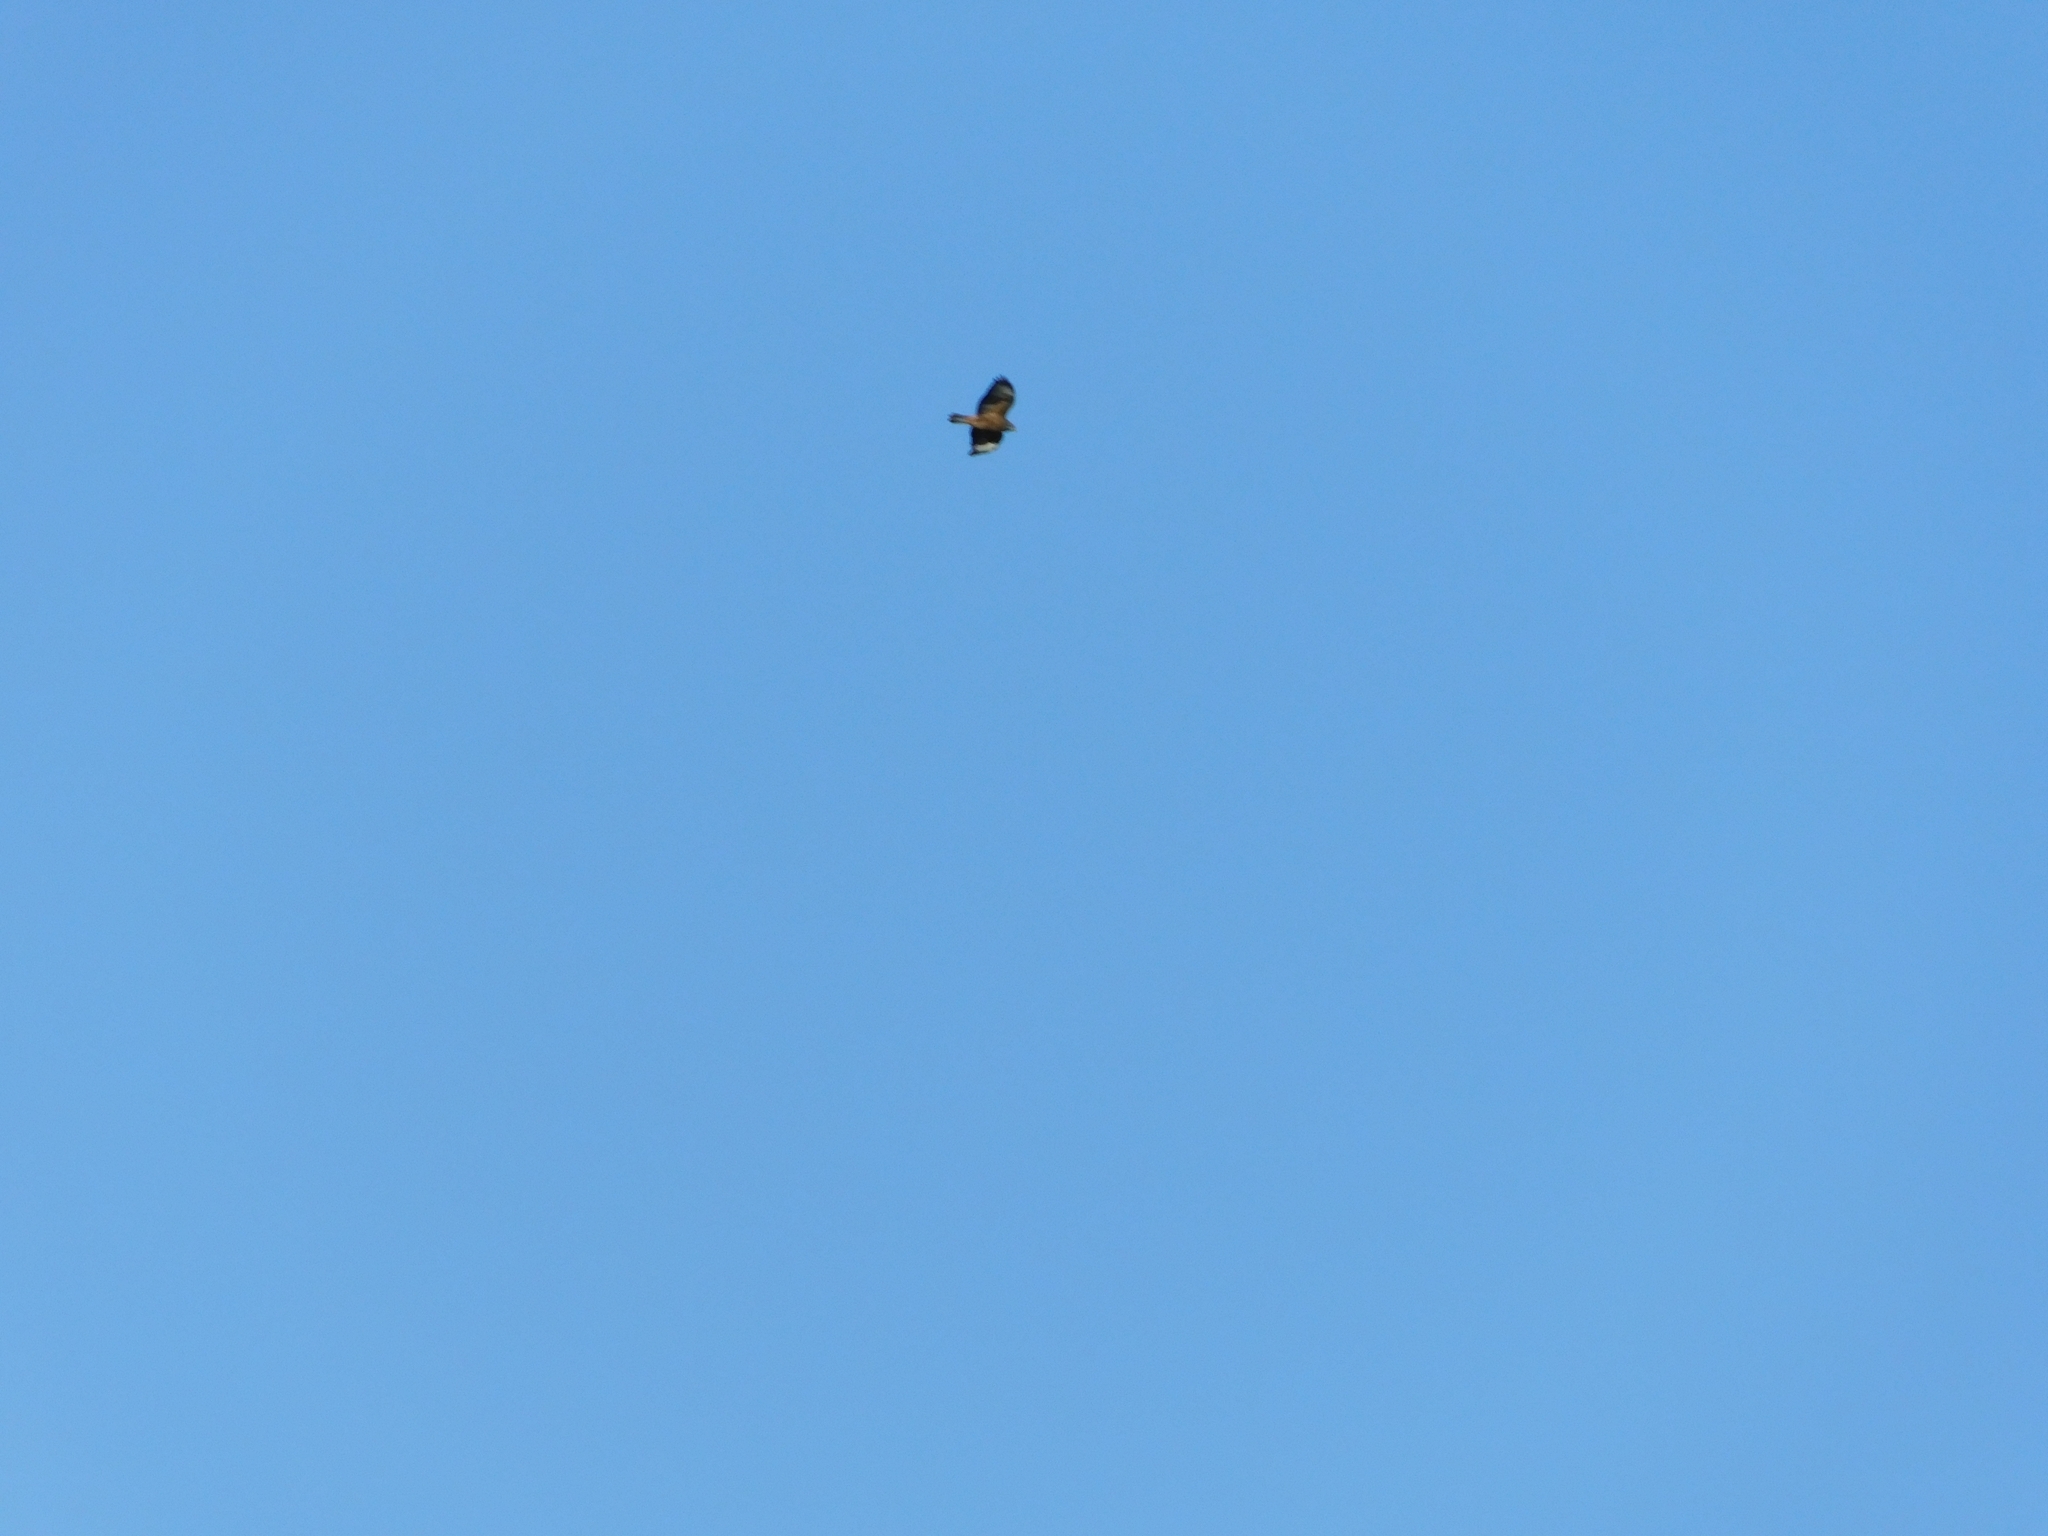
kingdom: Animalia
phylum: Chordata
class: Aves
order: Accipitriformes
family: Accipitridae
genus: Buteo
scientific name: Buteo buteo
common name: Common buzzard
